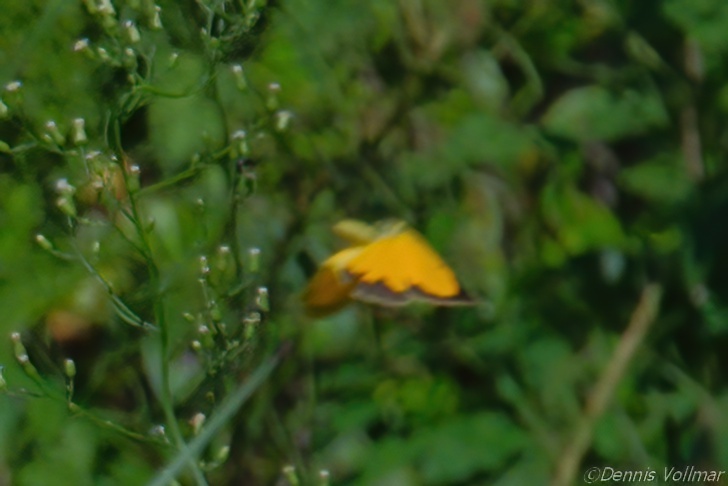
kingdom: Animalia
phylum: Arthropoda
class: Insecta
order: Lepidoptera
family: Pieridae
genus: Abaeis
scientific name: Abaeis nicippe
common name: Sleepy orange
